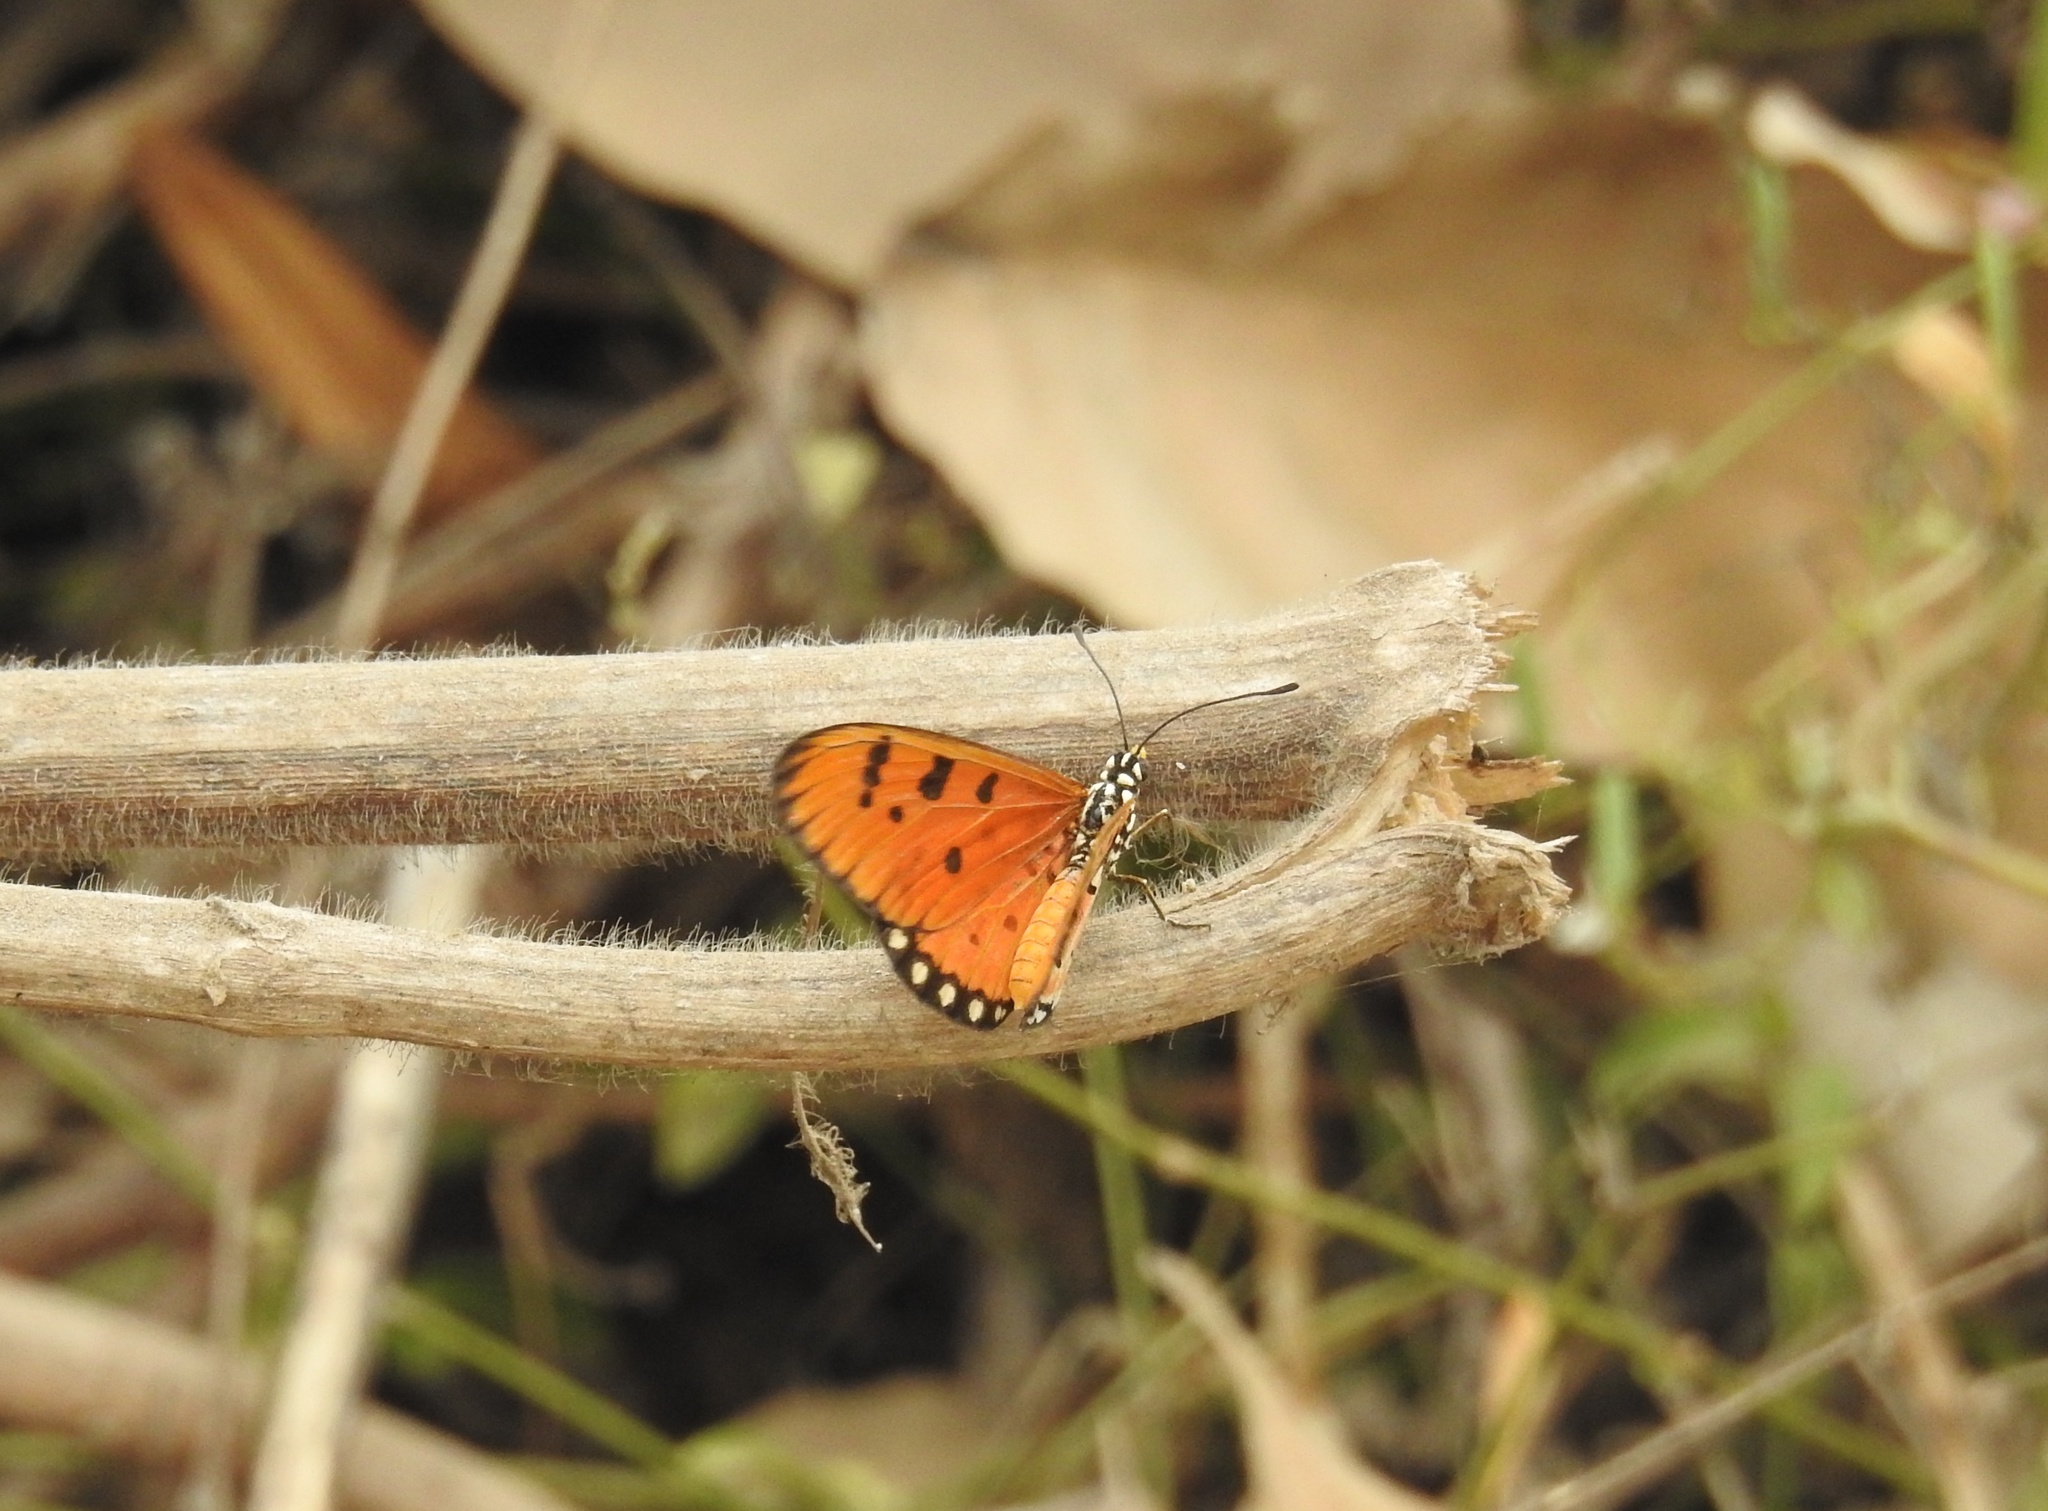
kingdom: Animalia
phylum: Arthropoda
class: Insecta
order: Lepidoptera
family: Nymphalidae
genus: Acraea
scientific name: Acraea terpsicore
